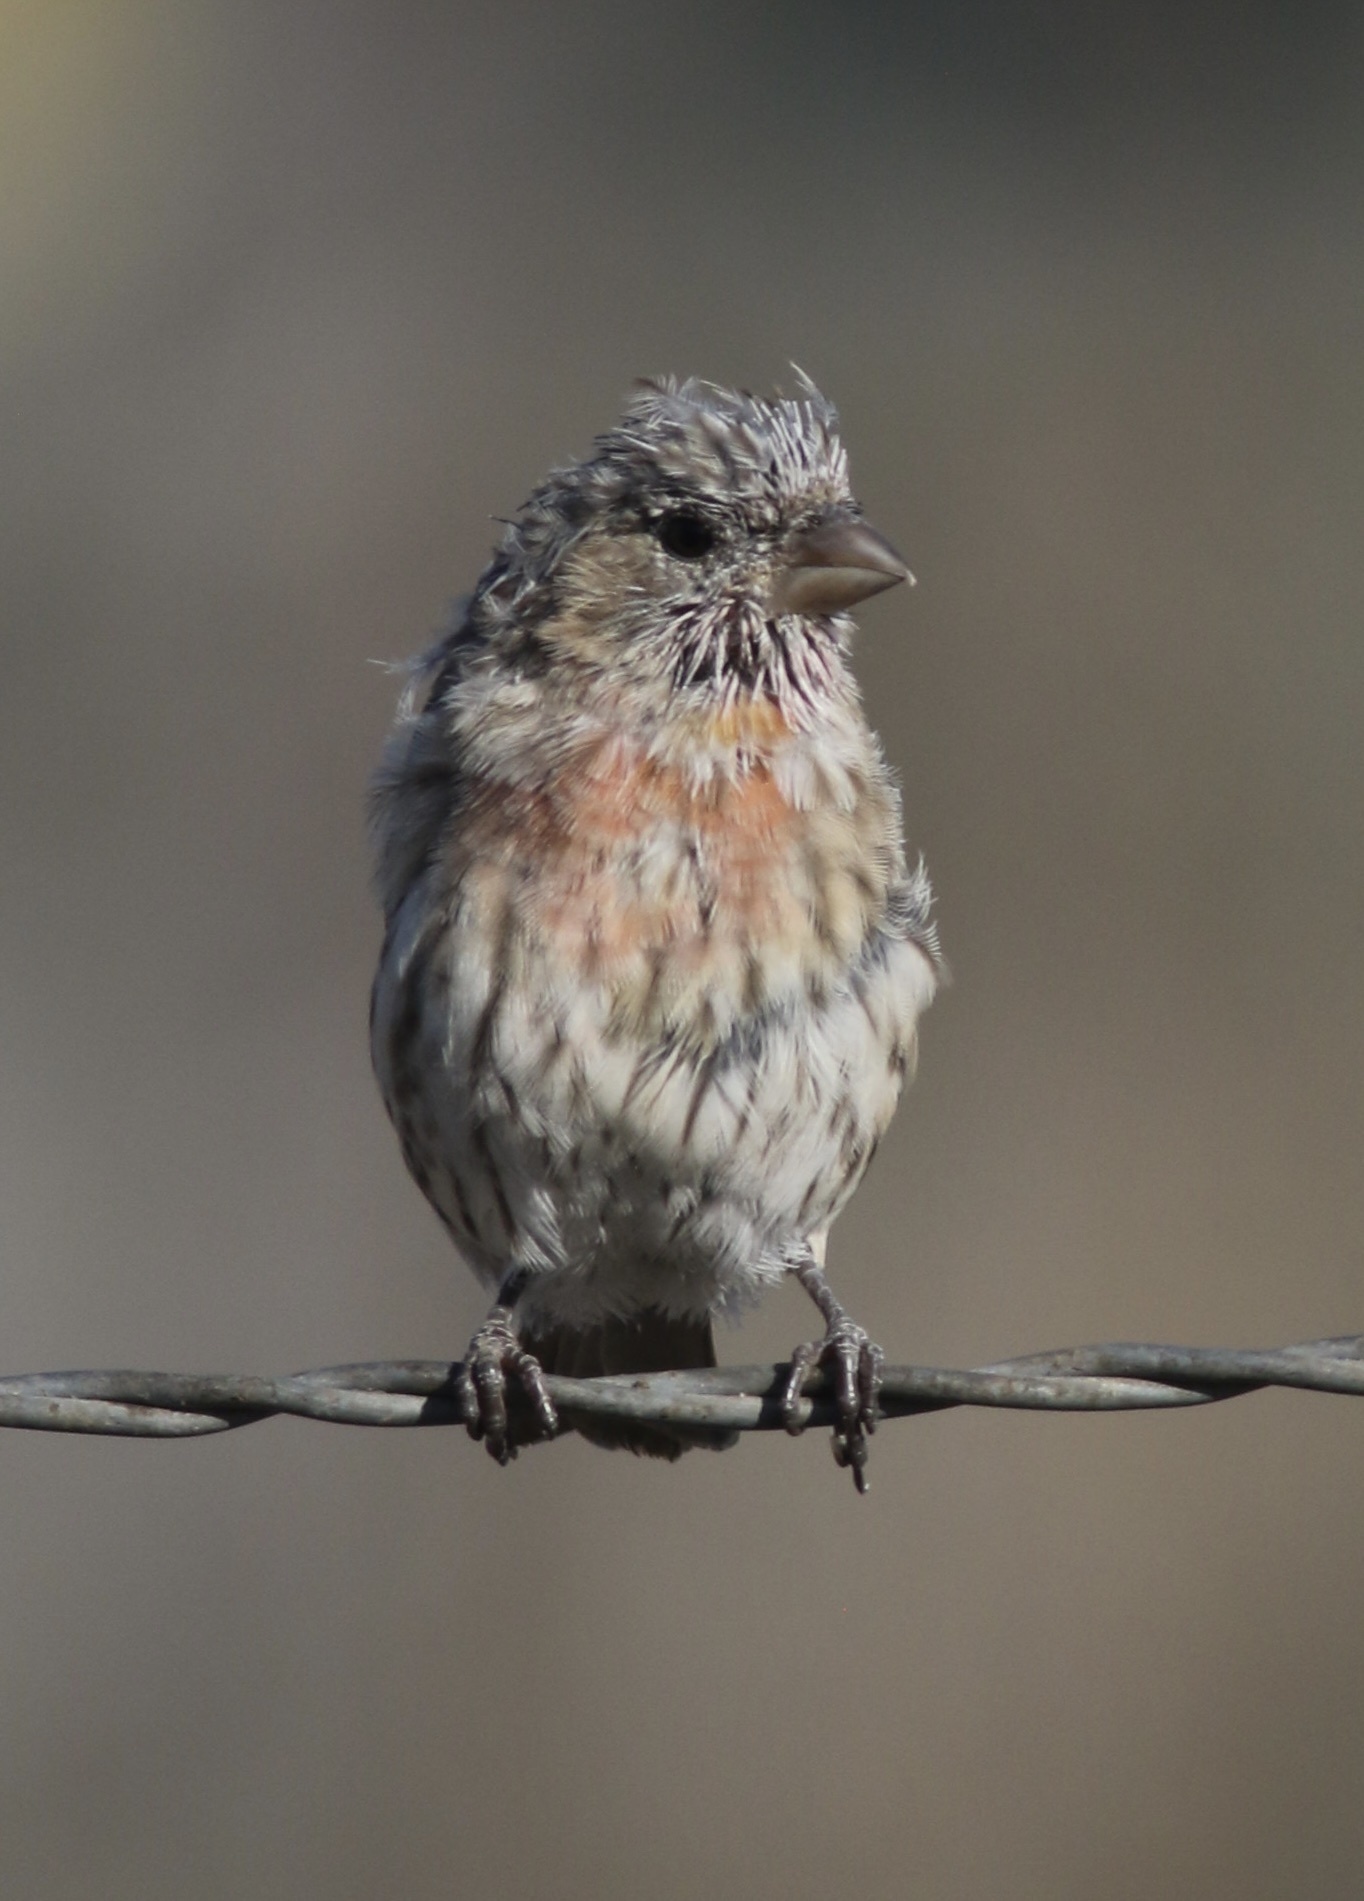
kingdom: Animalia
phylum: Chordata
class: Aves
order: Passeriformes
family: Fringillidae
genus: Haemorhous
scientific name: Haemorhous mexicanus
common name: House finch
